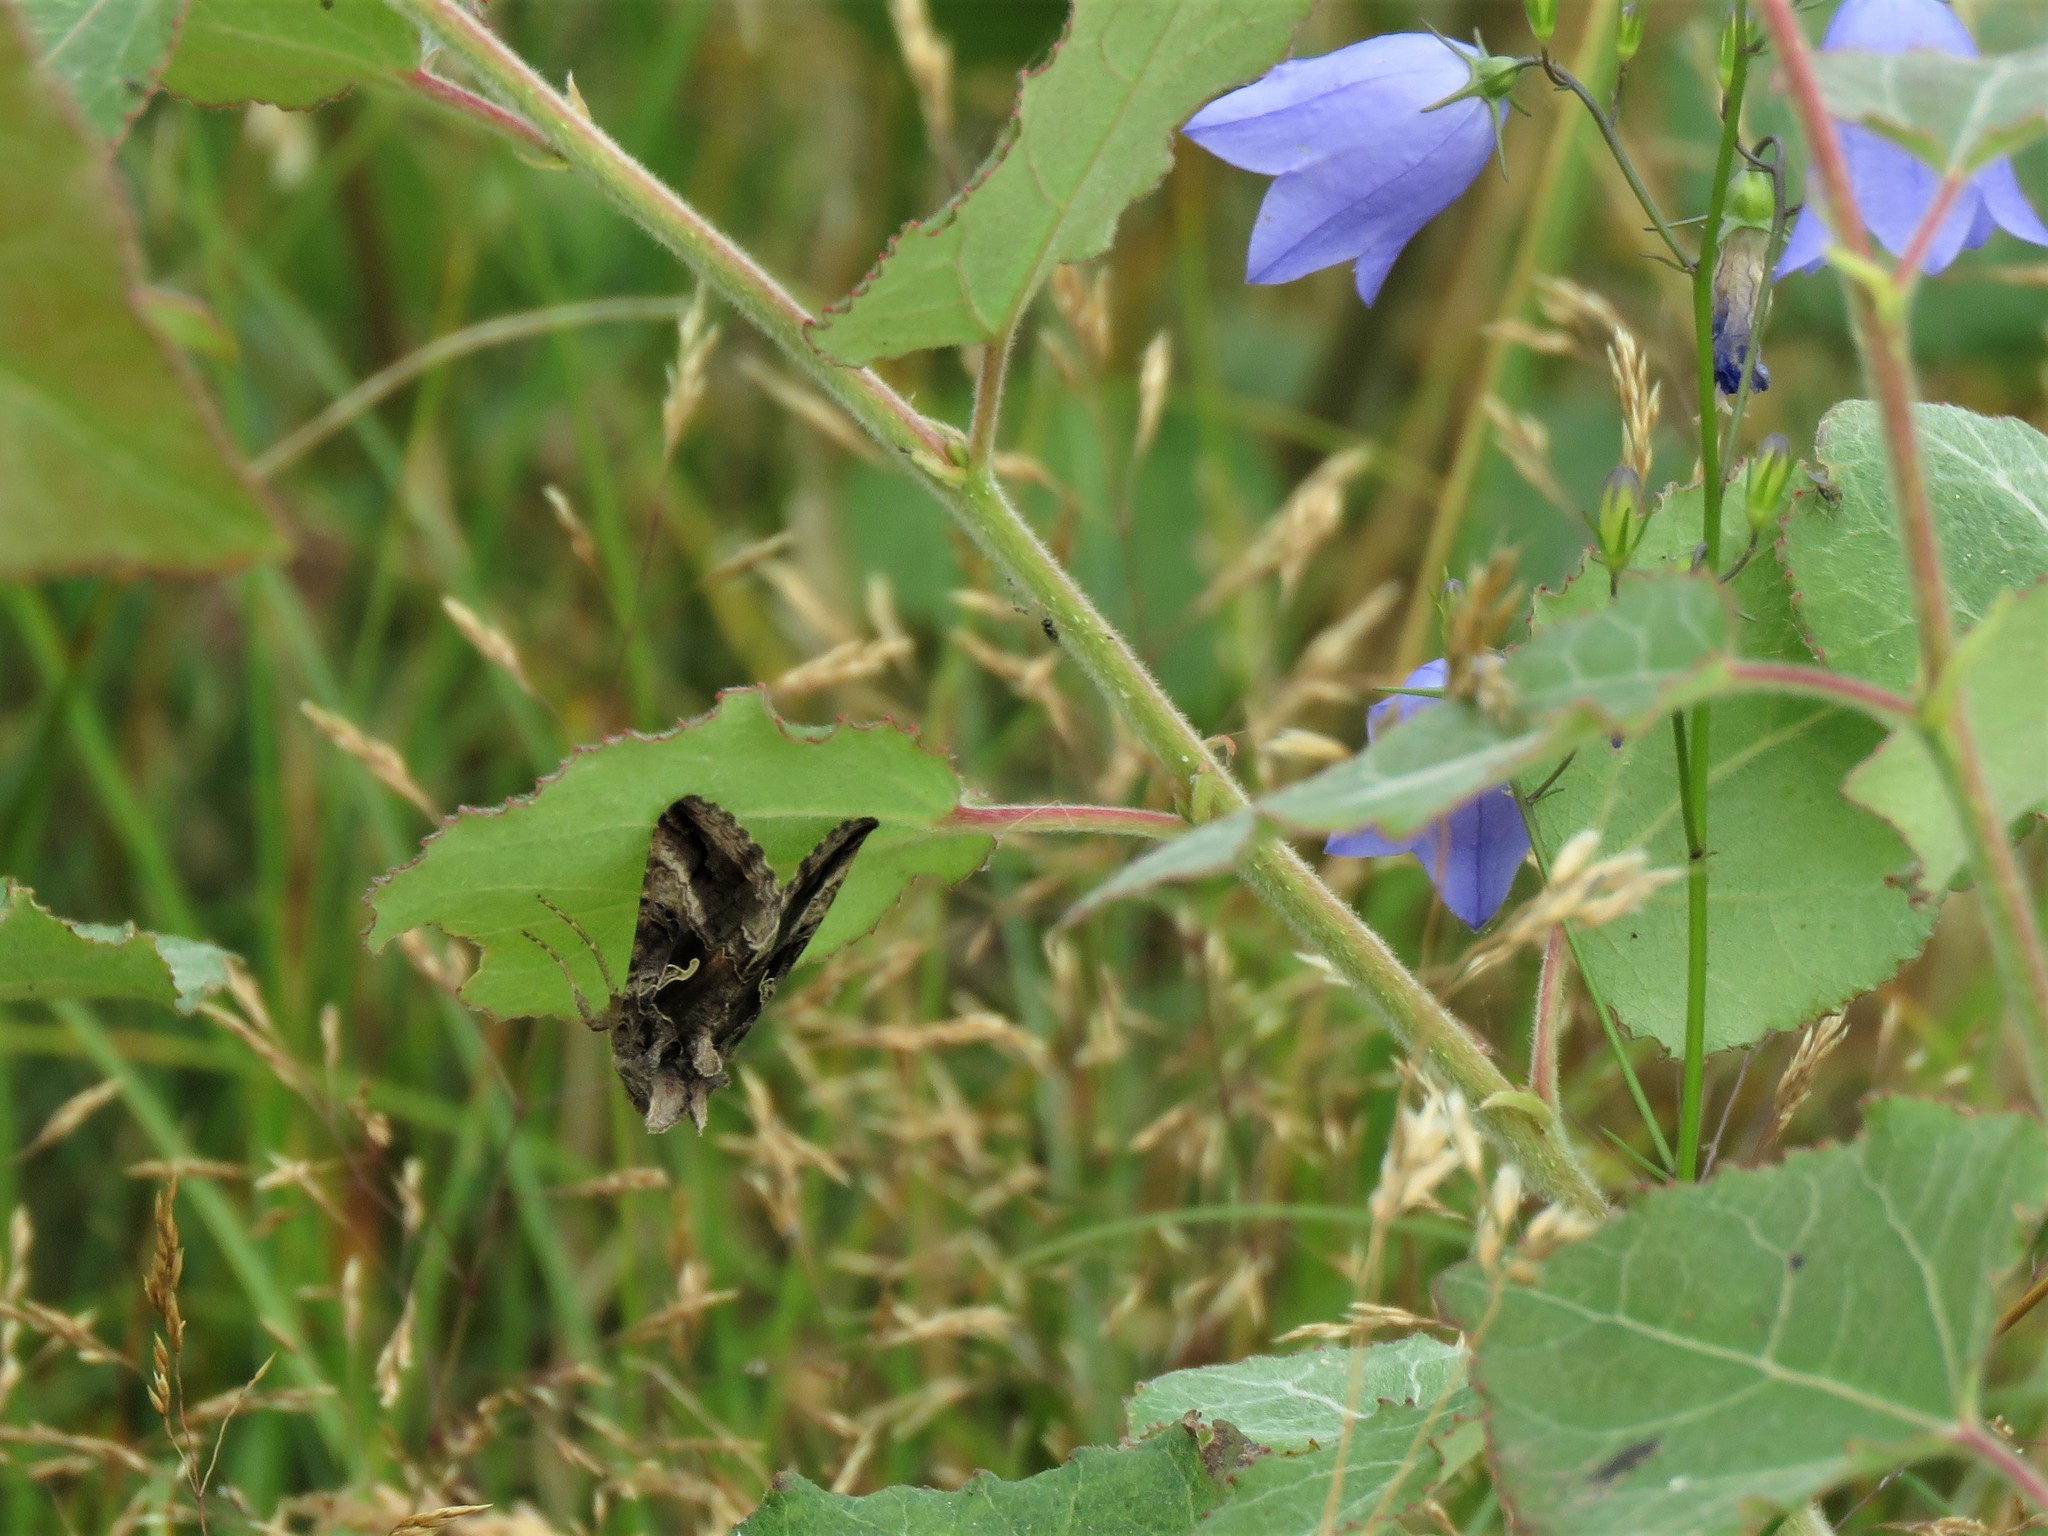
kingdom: Animalia
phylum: Arthropoda
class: Insecta
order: Lepidoptera
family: Noctuidae
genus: Autographa
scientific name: Autographa gamma
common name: Silver y
